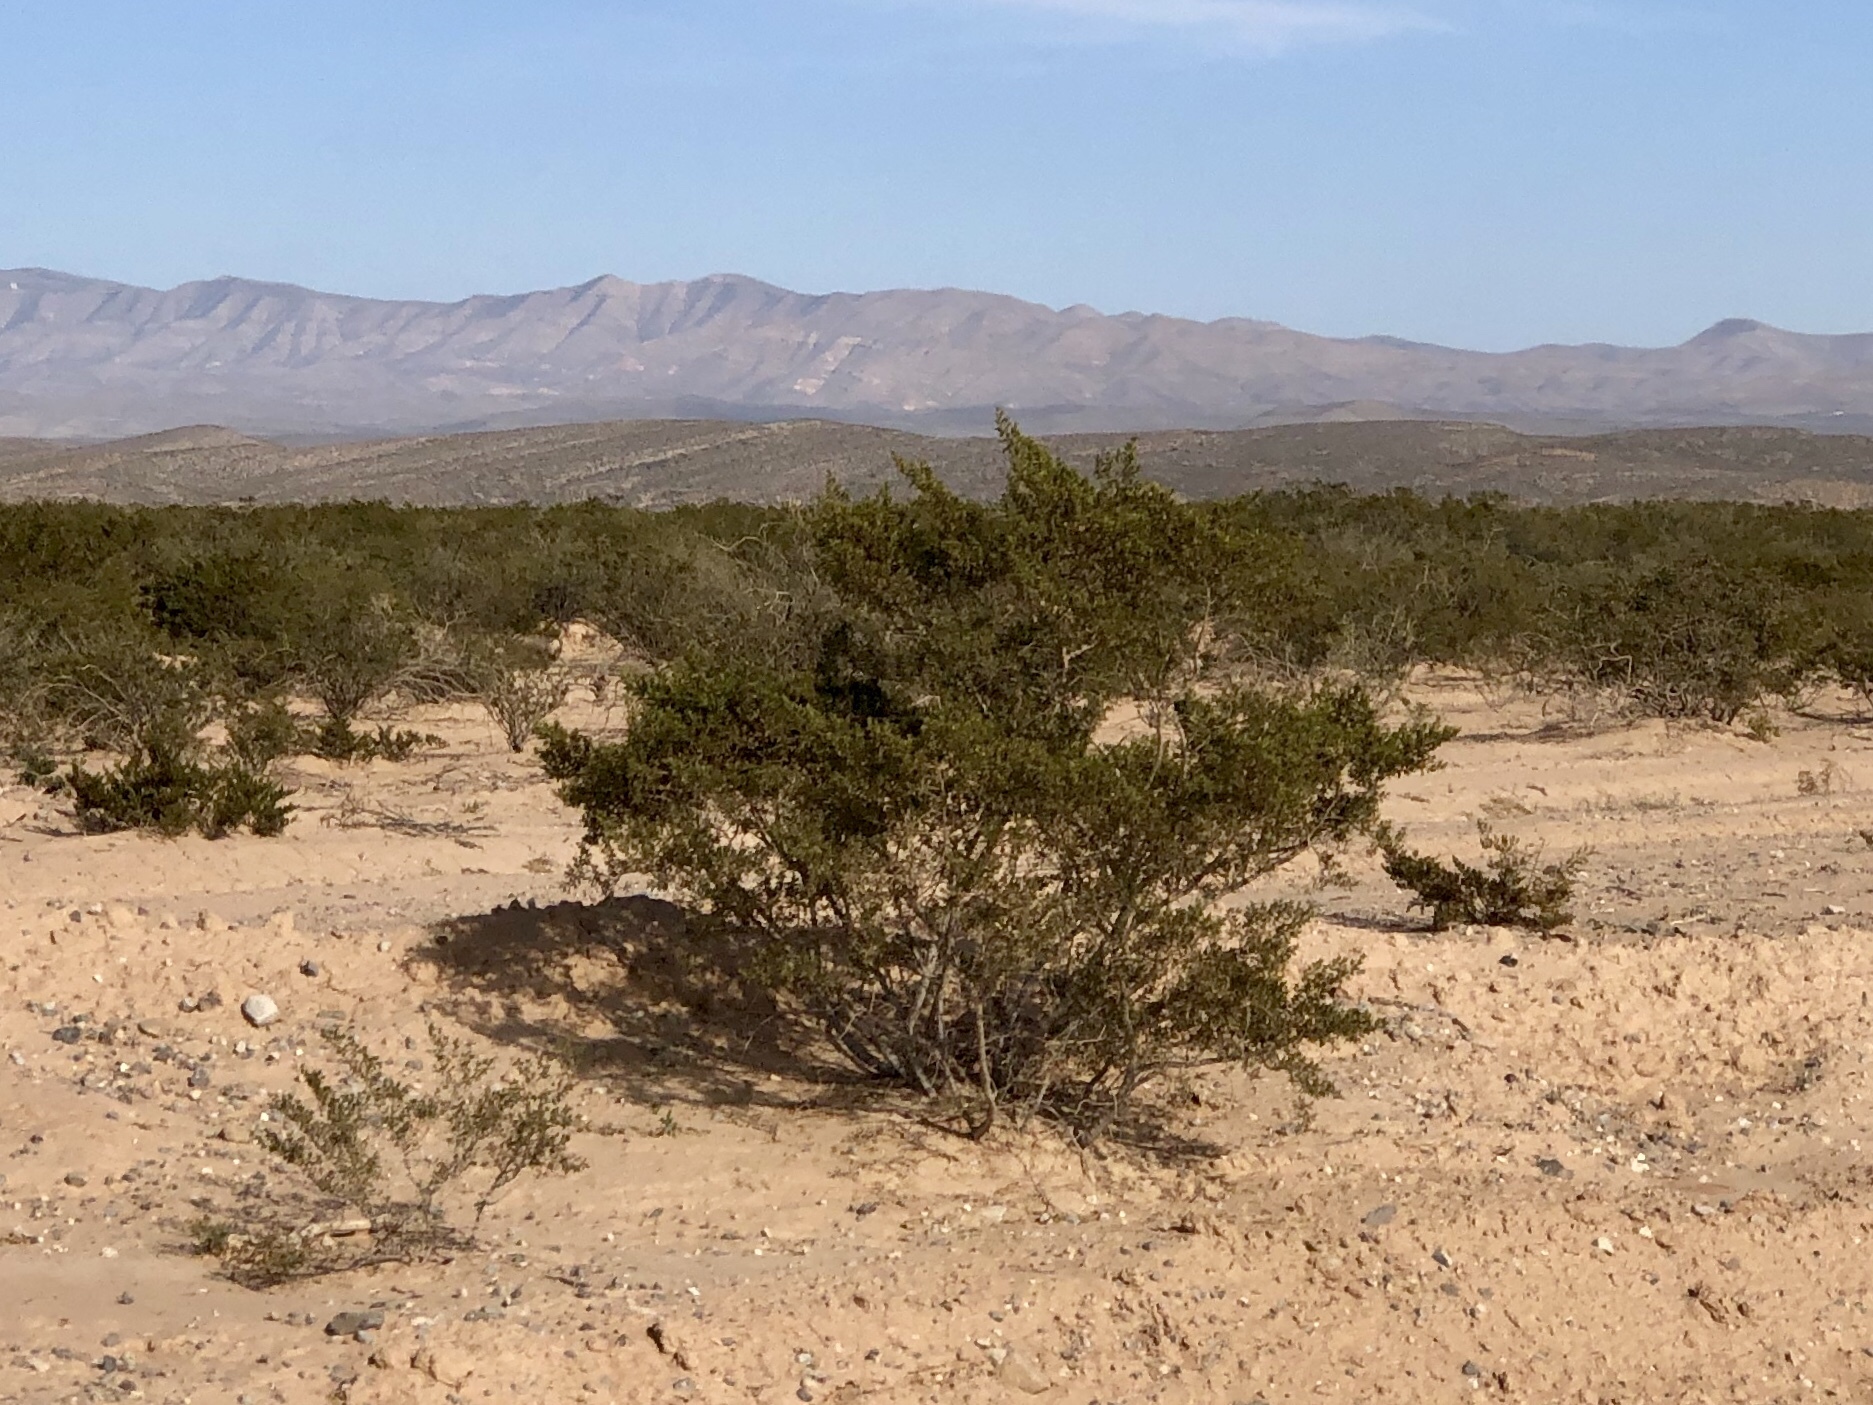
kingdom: Plantae
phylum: Tracheophyta
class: Magnoliopsida
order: Zygophyllales
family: Zygophyllaceae
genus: Larrea
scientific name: Larrea tridentata
